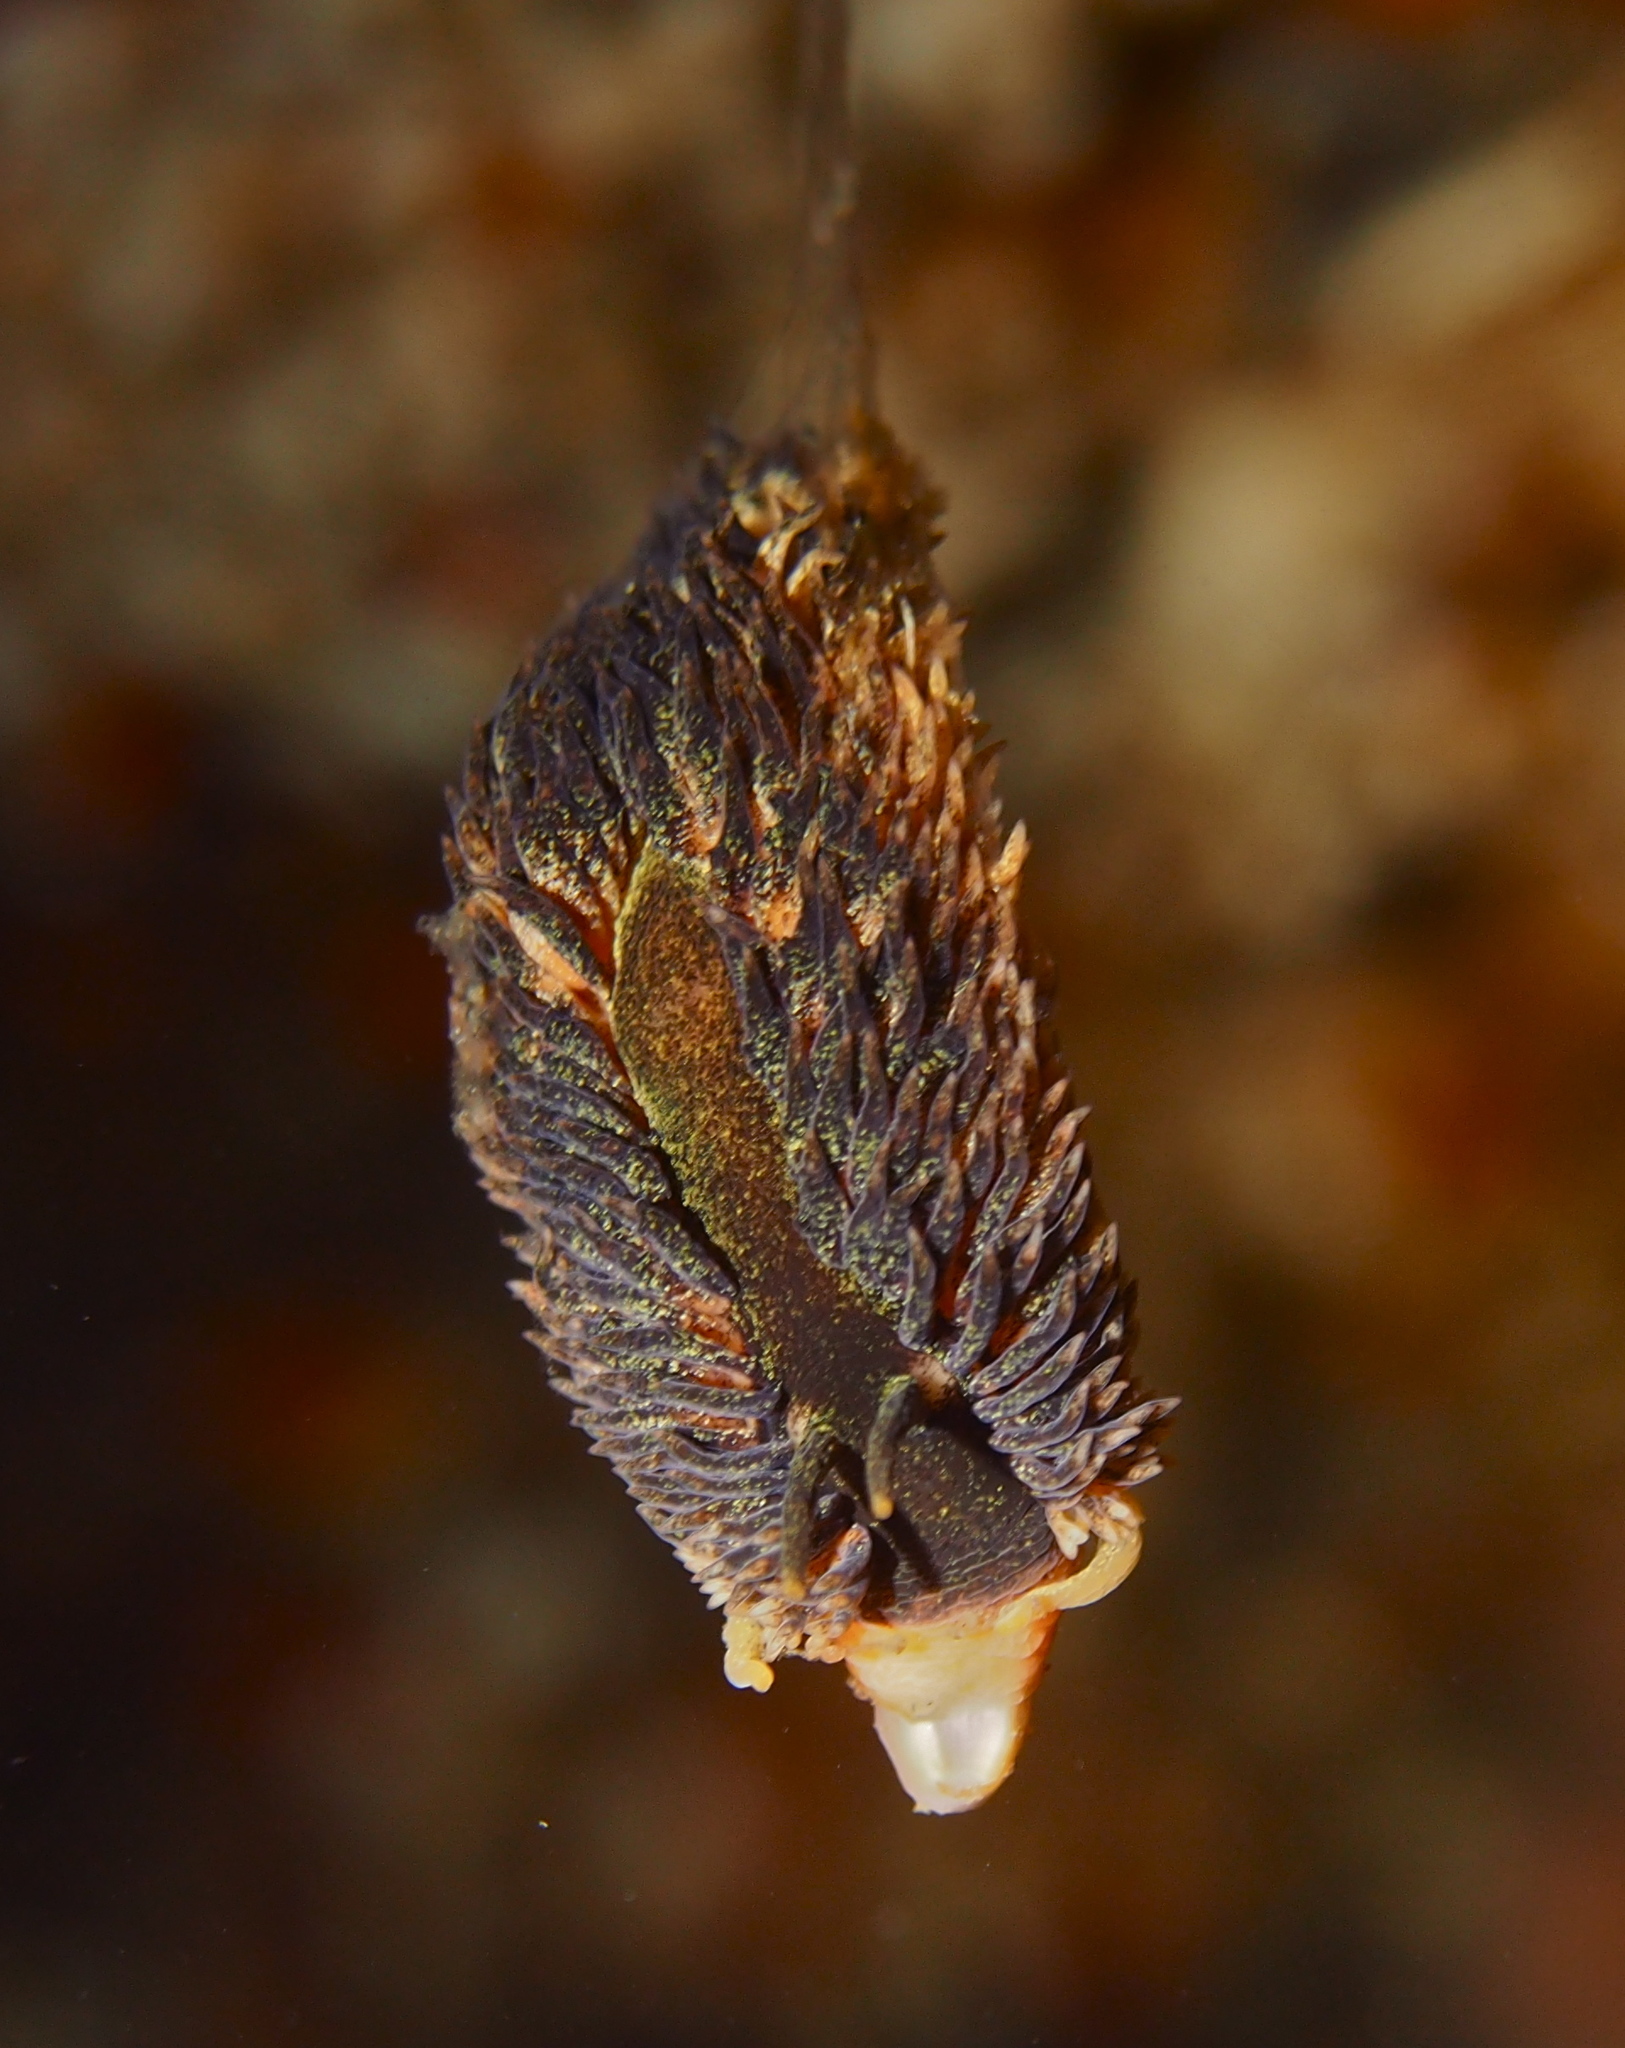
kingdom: Animalia
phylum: Mollusca
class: Gastropoda
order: Nudibranchia
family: Aeolidiidae
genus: Aeolidia
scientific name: Aeolidia papillosa
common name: Common grey sea slug
